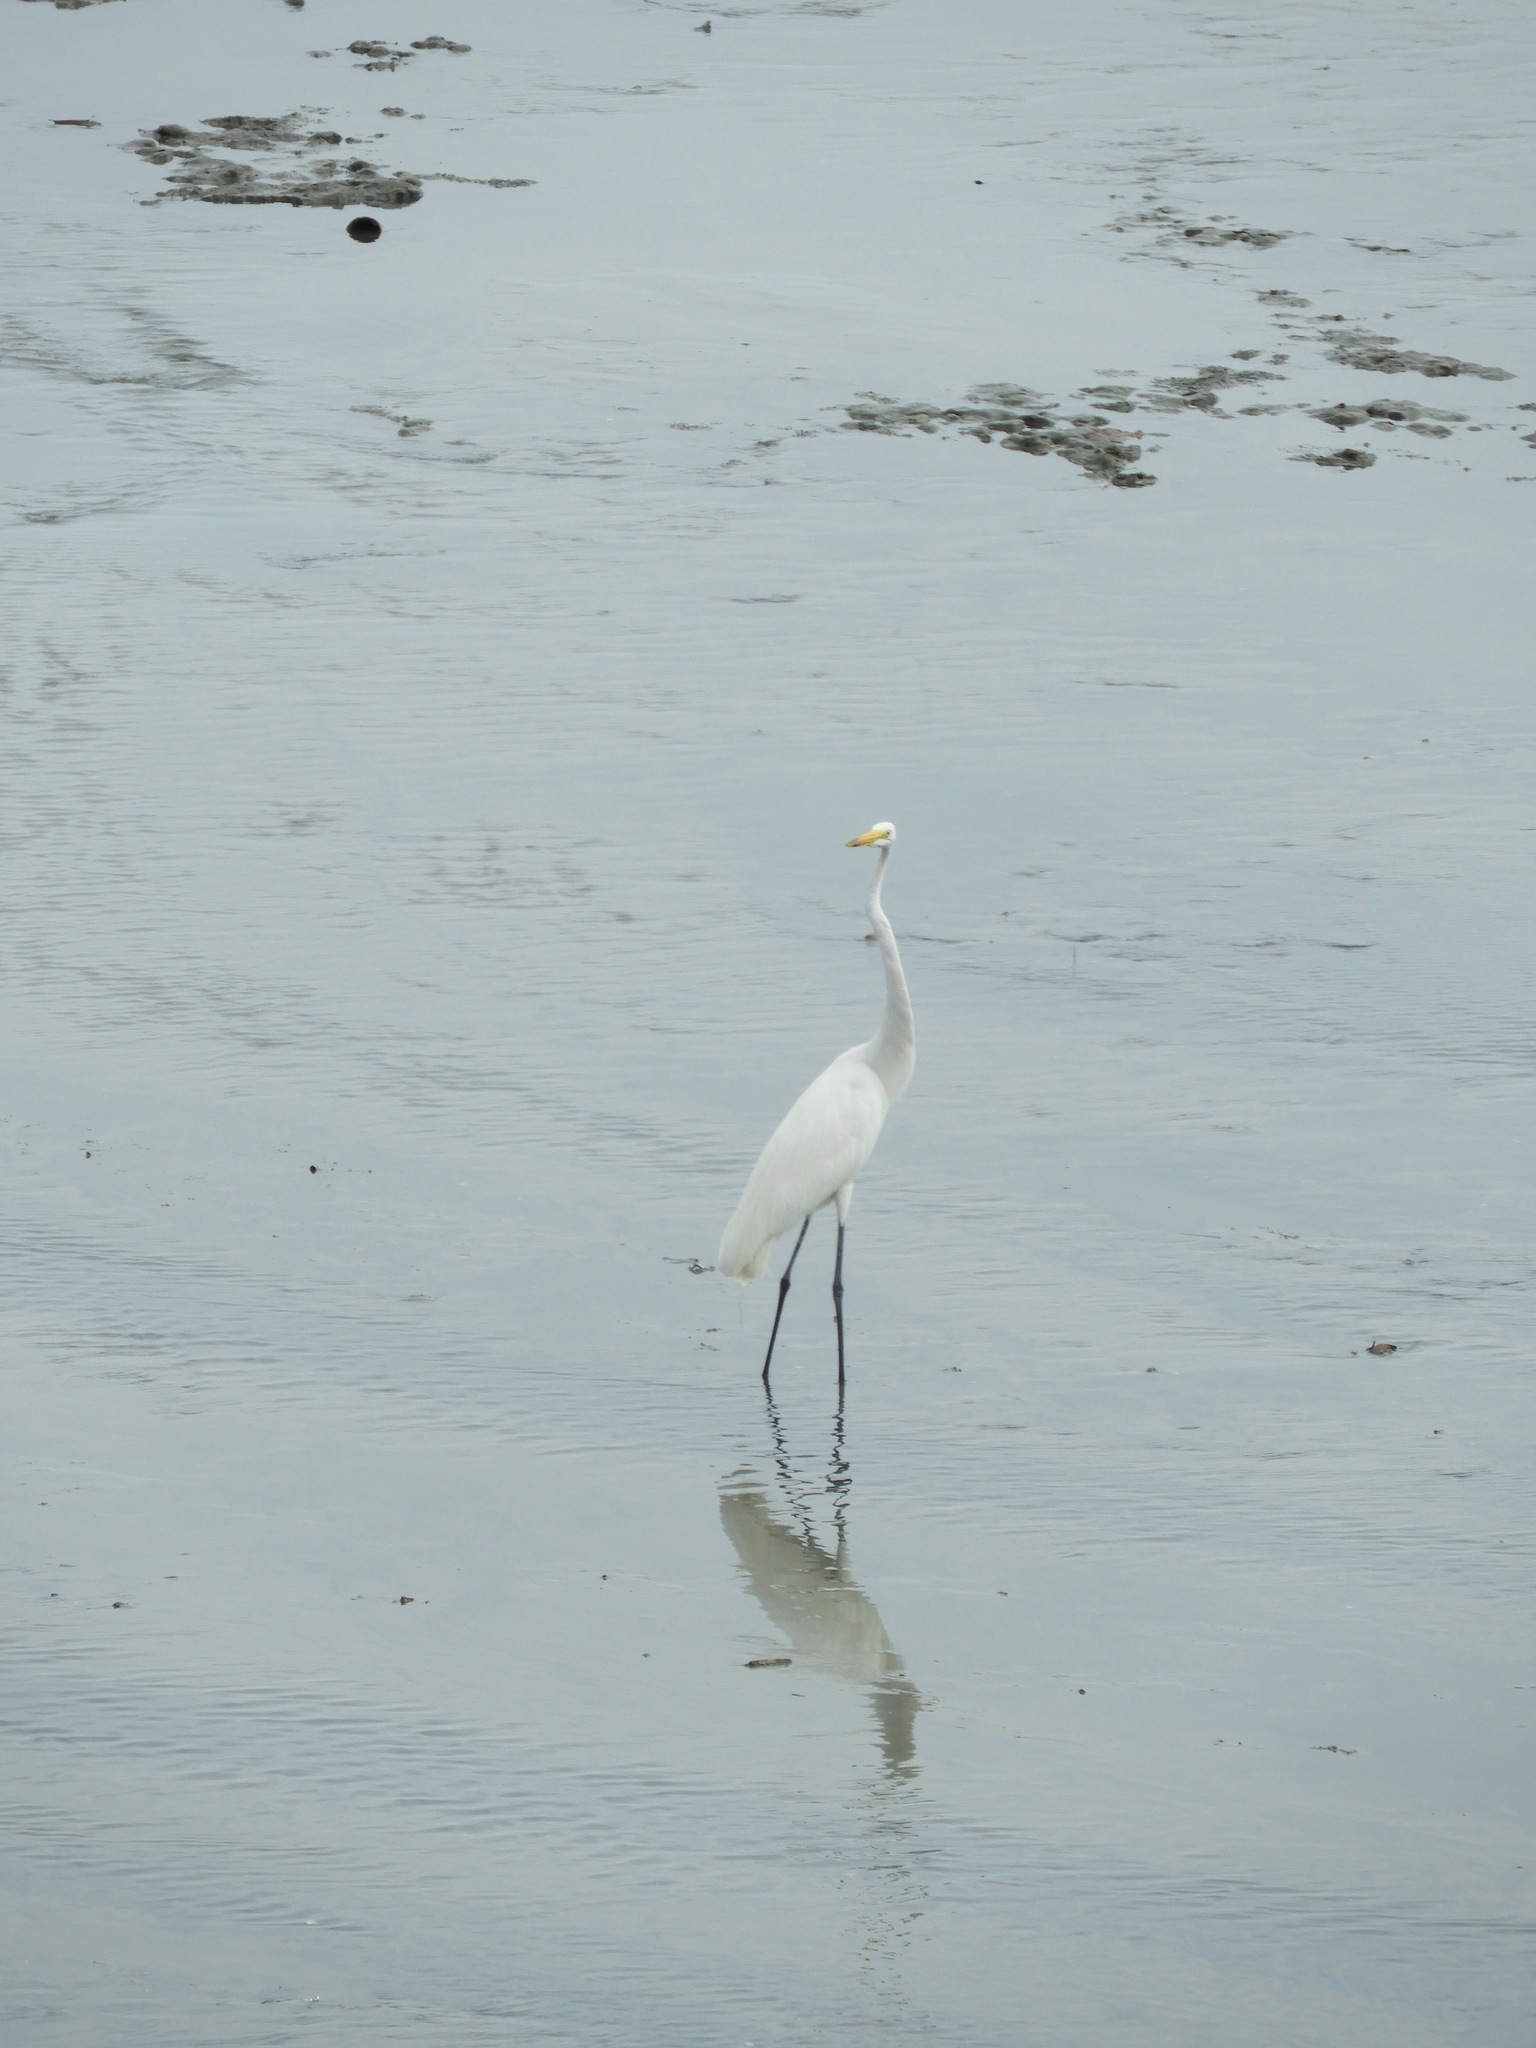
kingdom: Animalia
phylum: Chordata
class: Aves
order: Pelecaniformes
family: Ardeidae
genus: Ardea
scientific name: Ardea alba
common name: Great egret
